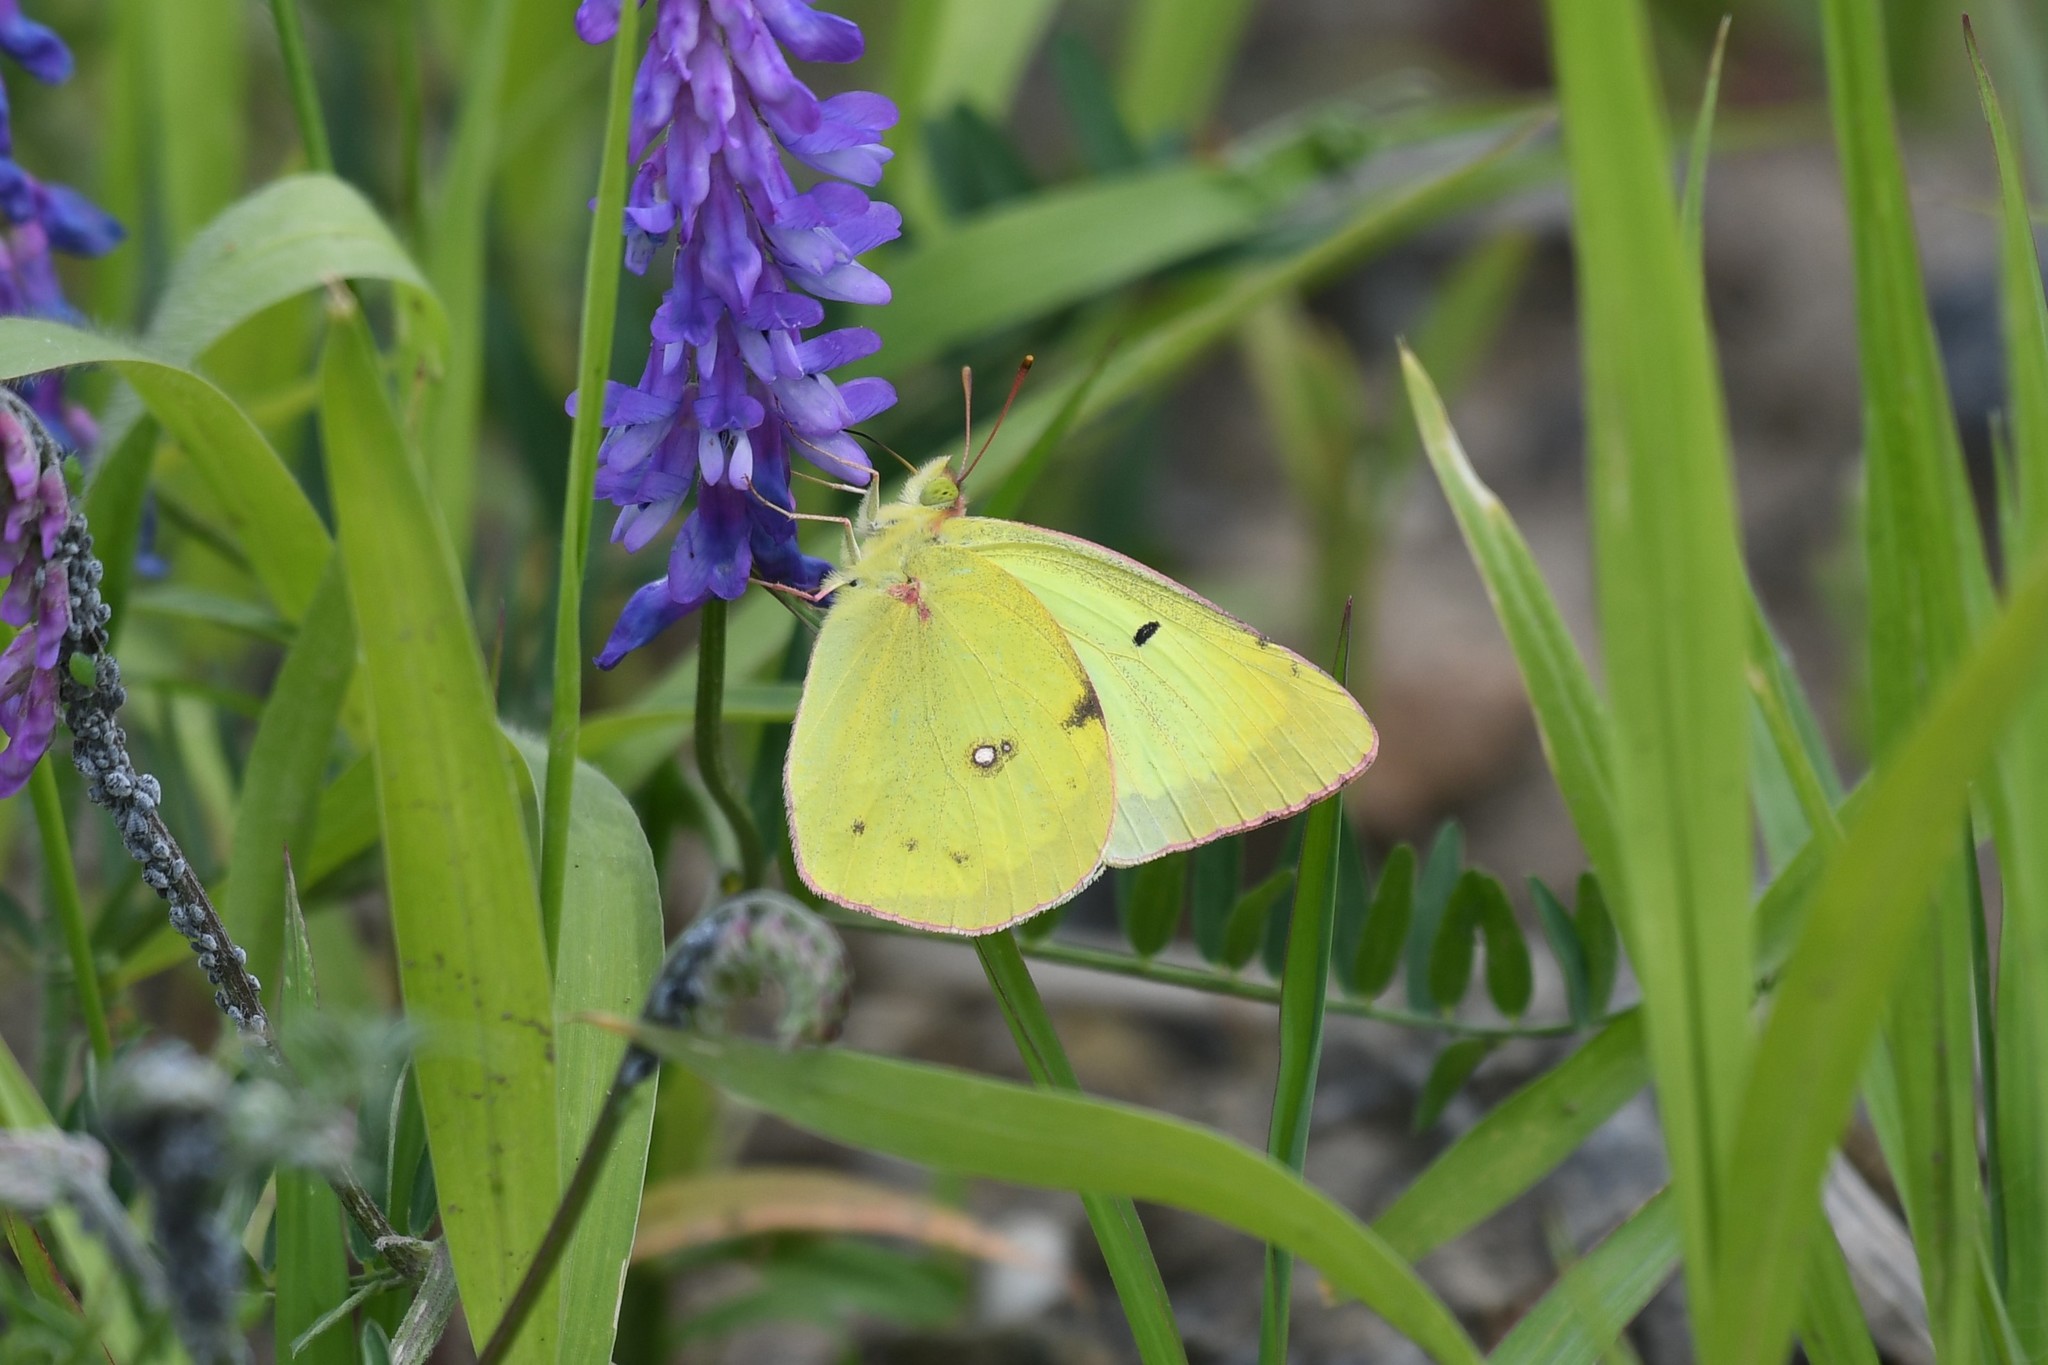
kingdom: Animalia
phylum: Arthropoda
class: Insecta
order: Lepidoptera
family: Pieridae
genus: Colias
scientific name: Colias philodice
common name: Clouded sulphur
